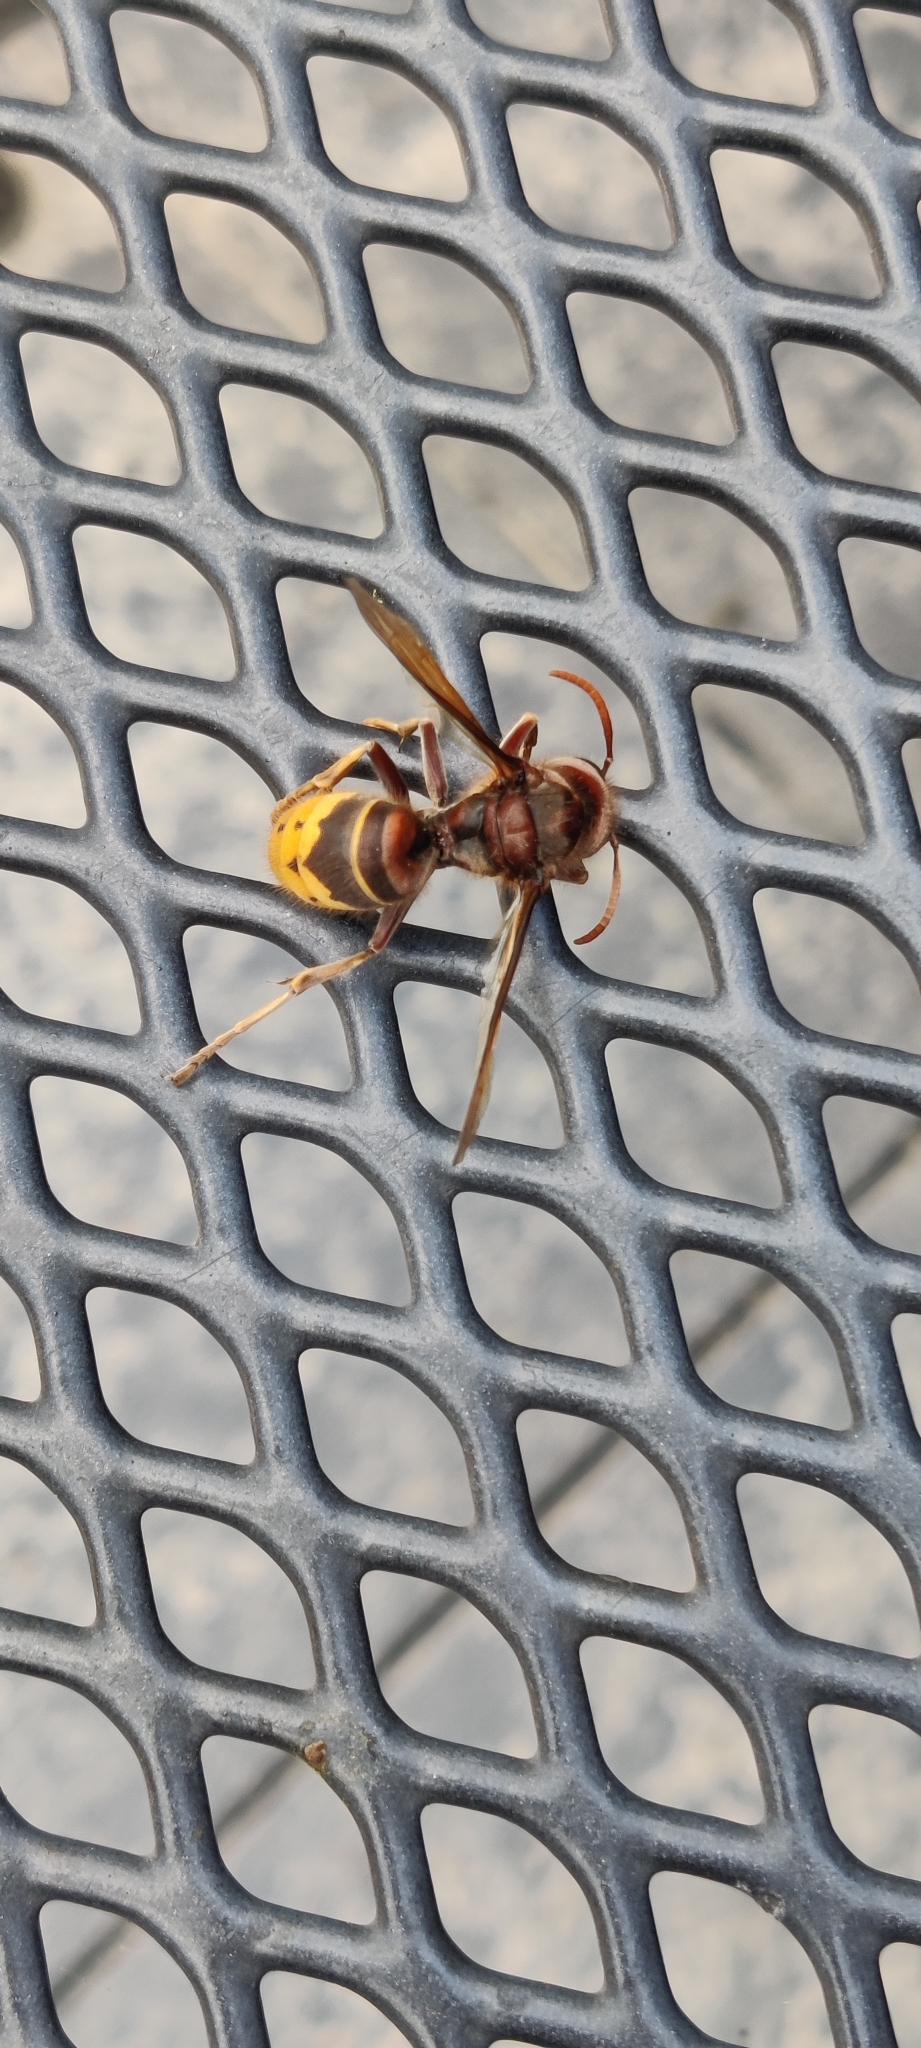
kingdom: Animalia
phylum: Arthropoda
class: Insecta
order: Hymenoptera
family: Vespidae
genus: Vespa
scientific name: Vespa crabro
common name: Hornet
